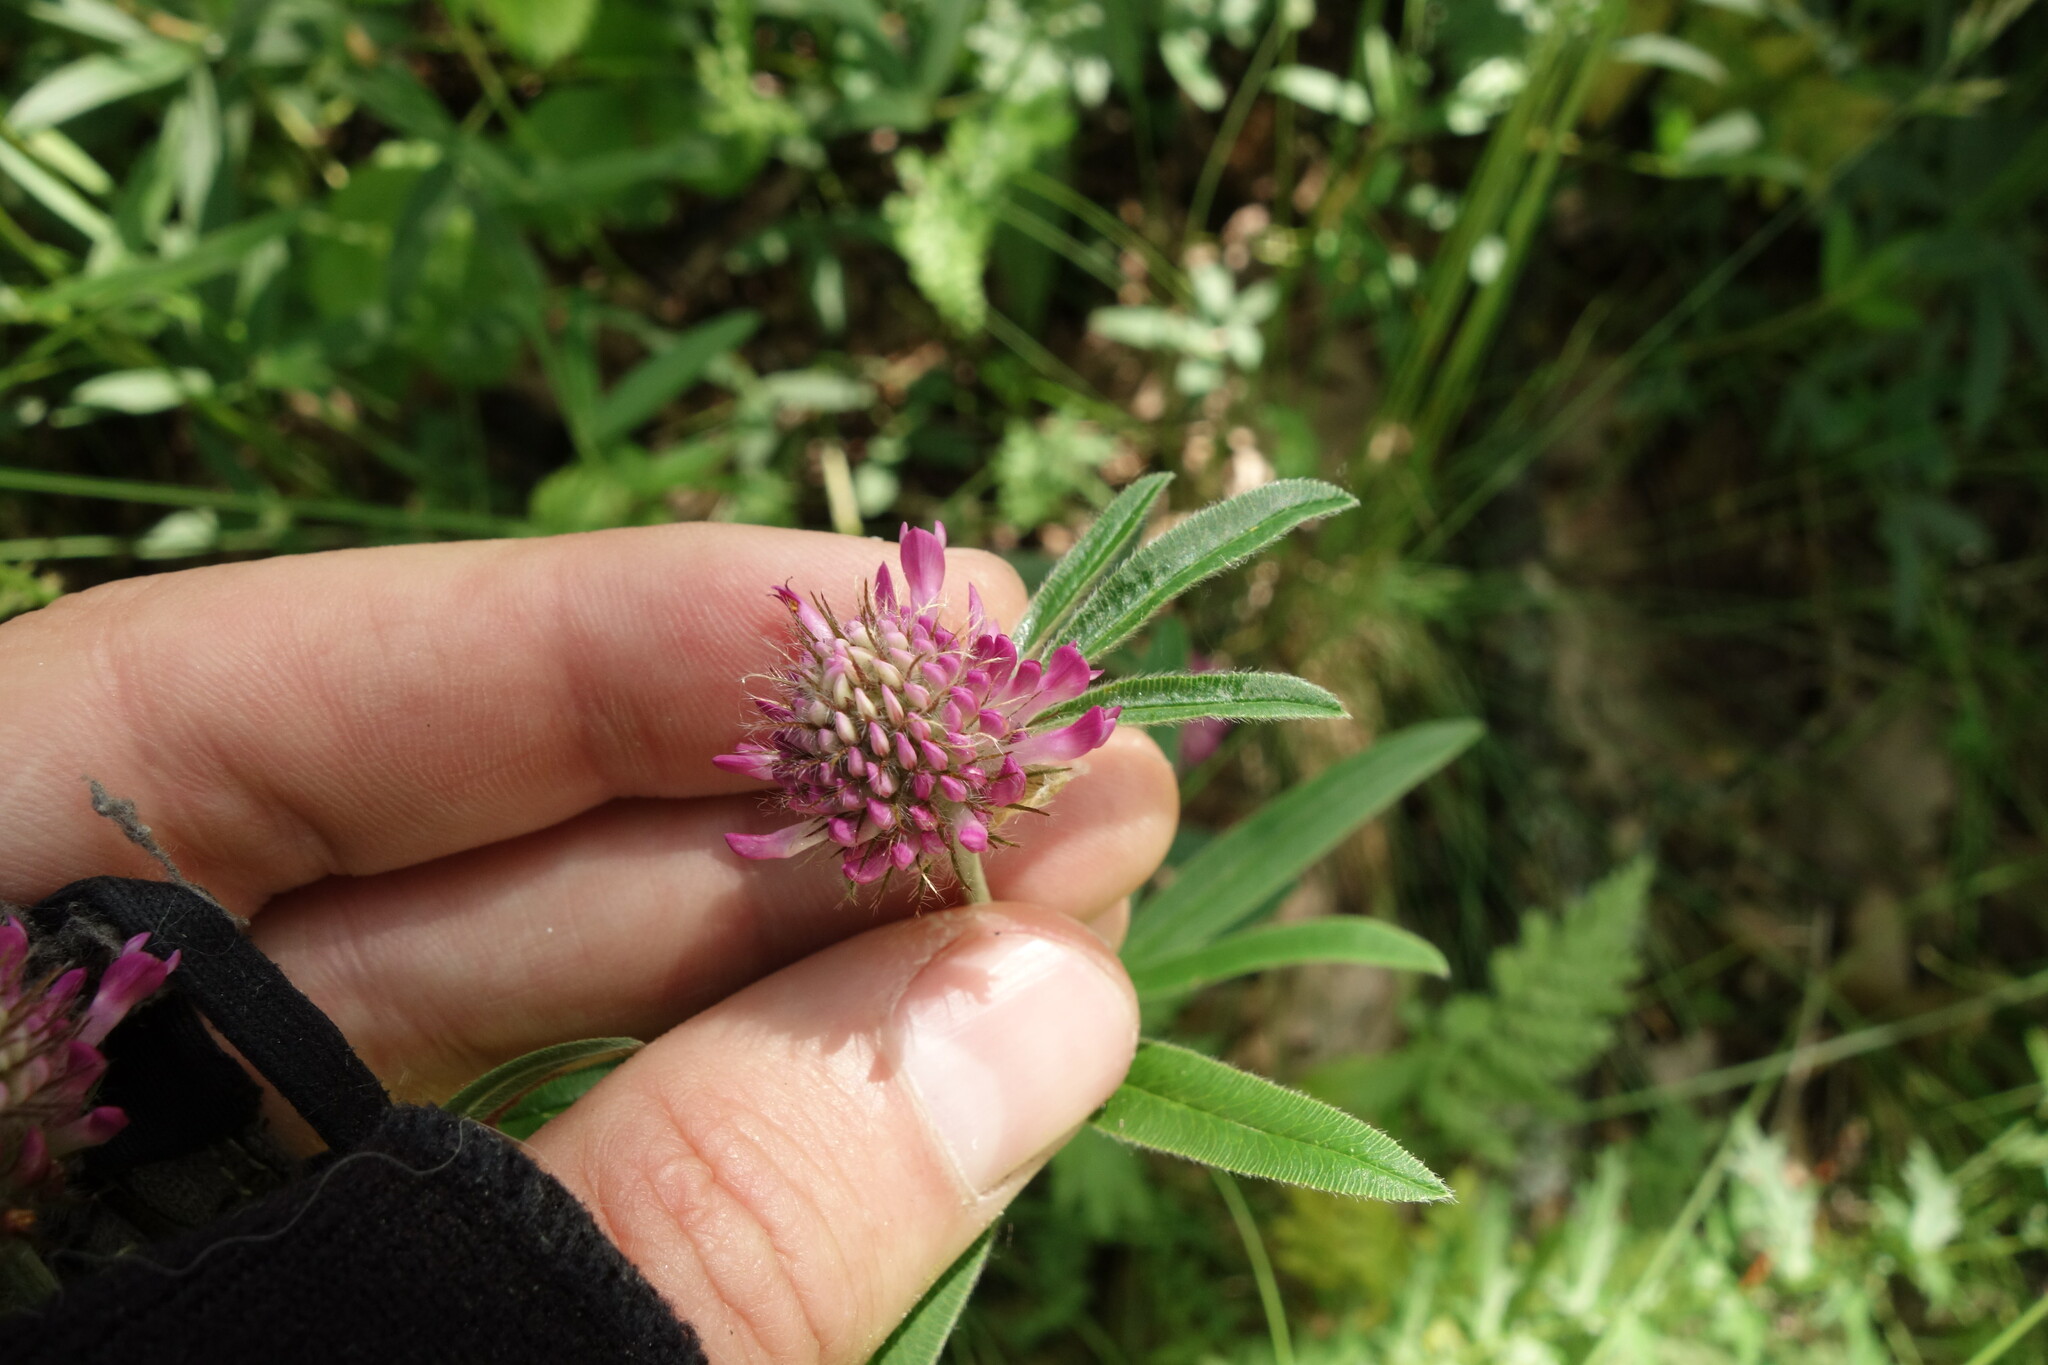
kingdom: Plantae
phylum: Tracheophyta
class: Magnoliopsida
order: Fabales
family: Fabaceae
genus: Trifolium
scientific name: Trifolium alpestre
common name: Owl-head clover
